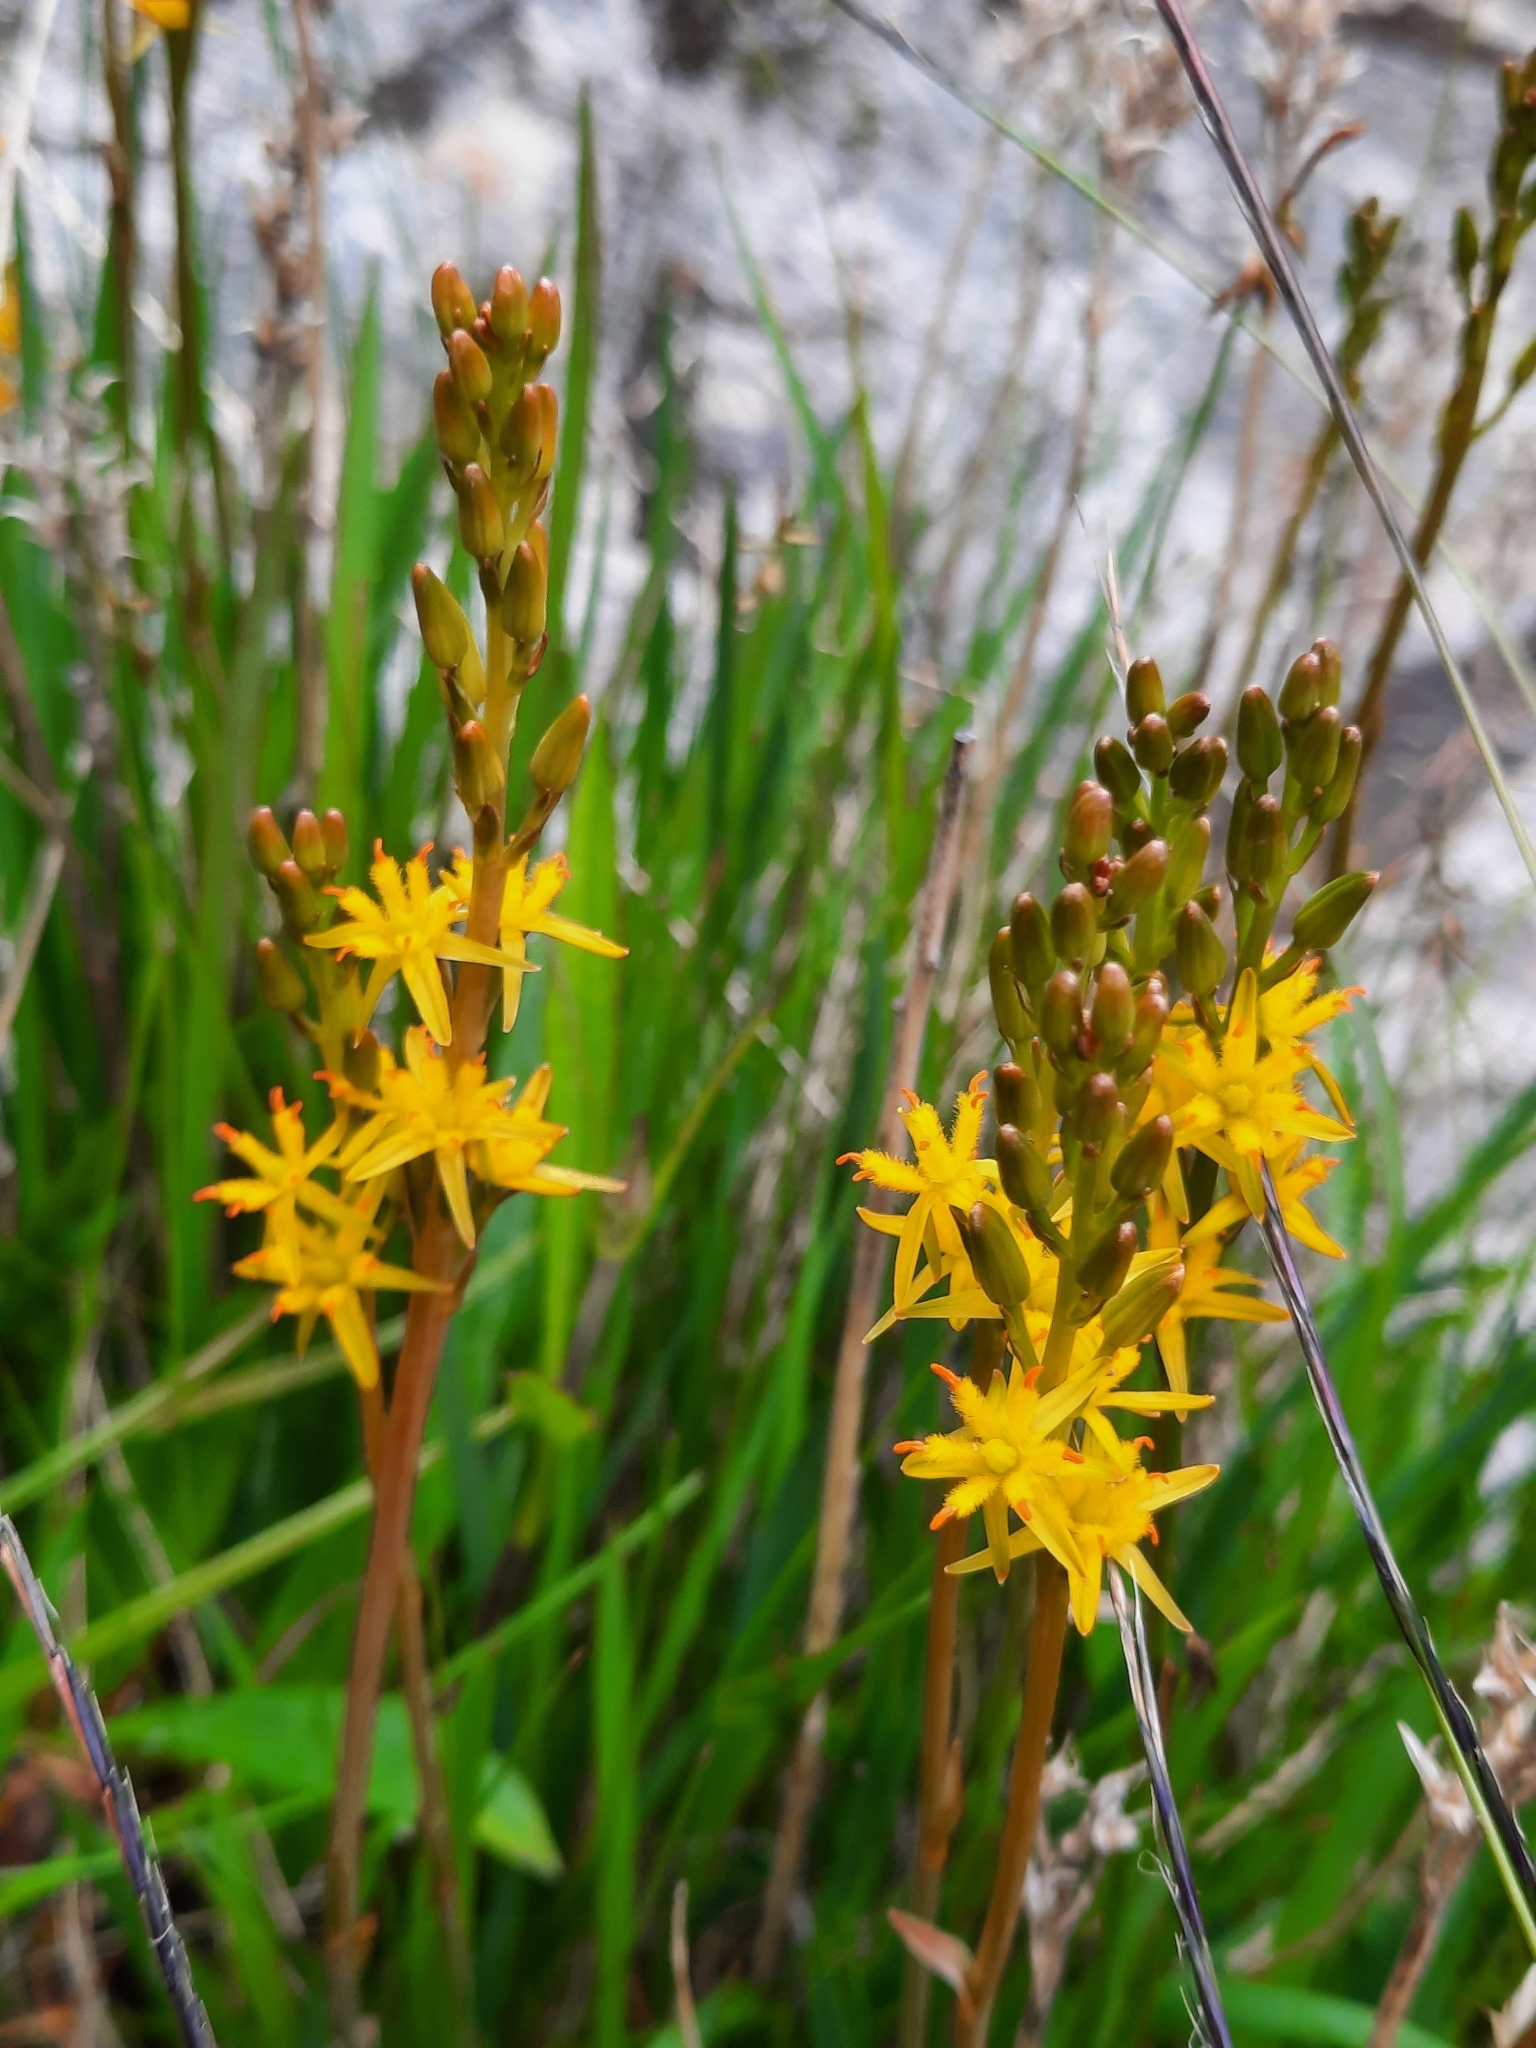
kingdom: Plantae
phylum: Tracheophyta
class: Liliopsida
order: Dioscoreales
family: Nartheciaceae
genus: Narthecium
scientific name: Narthecium ossifragum
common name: Bog asphodel
